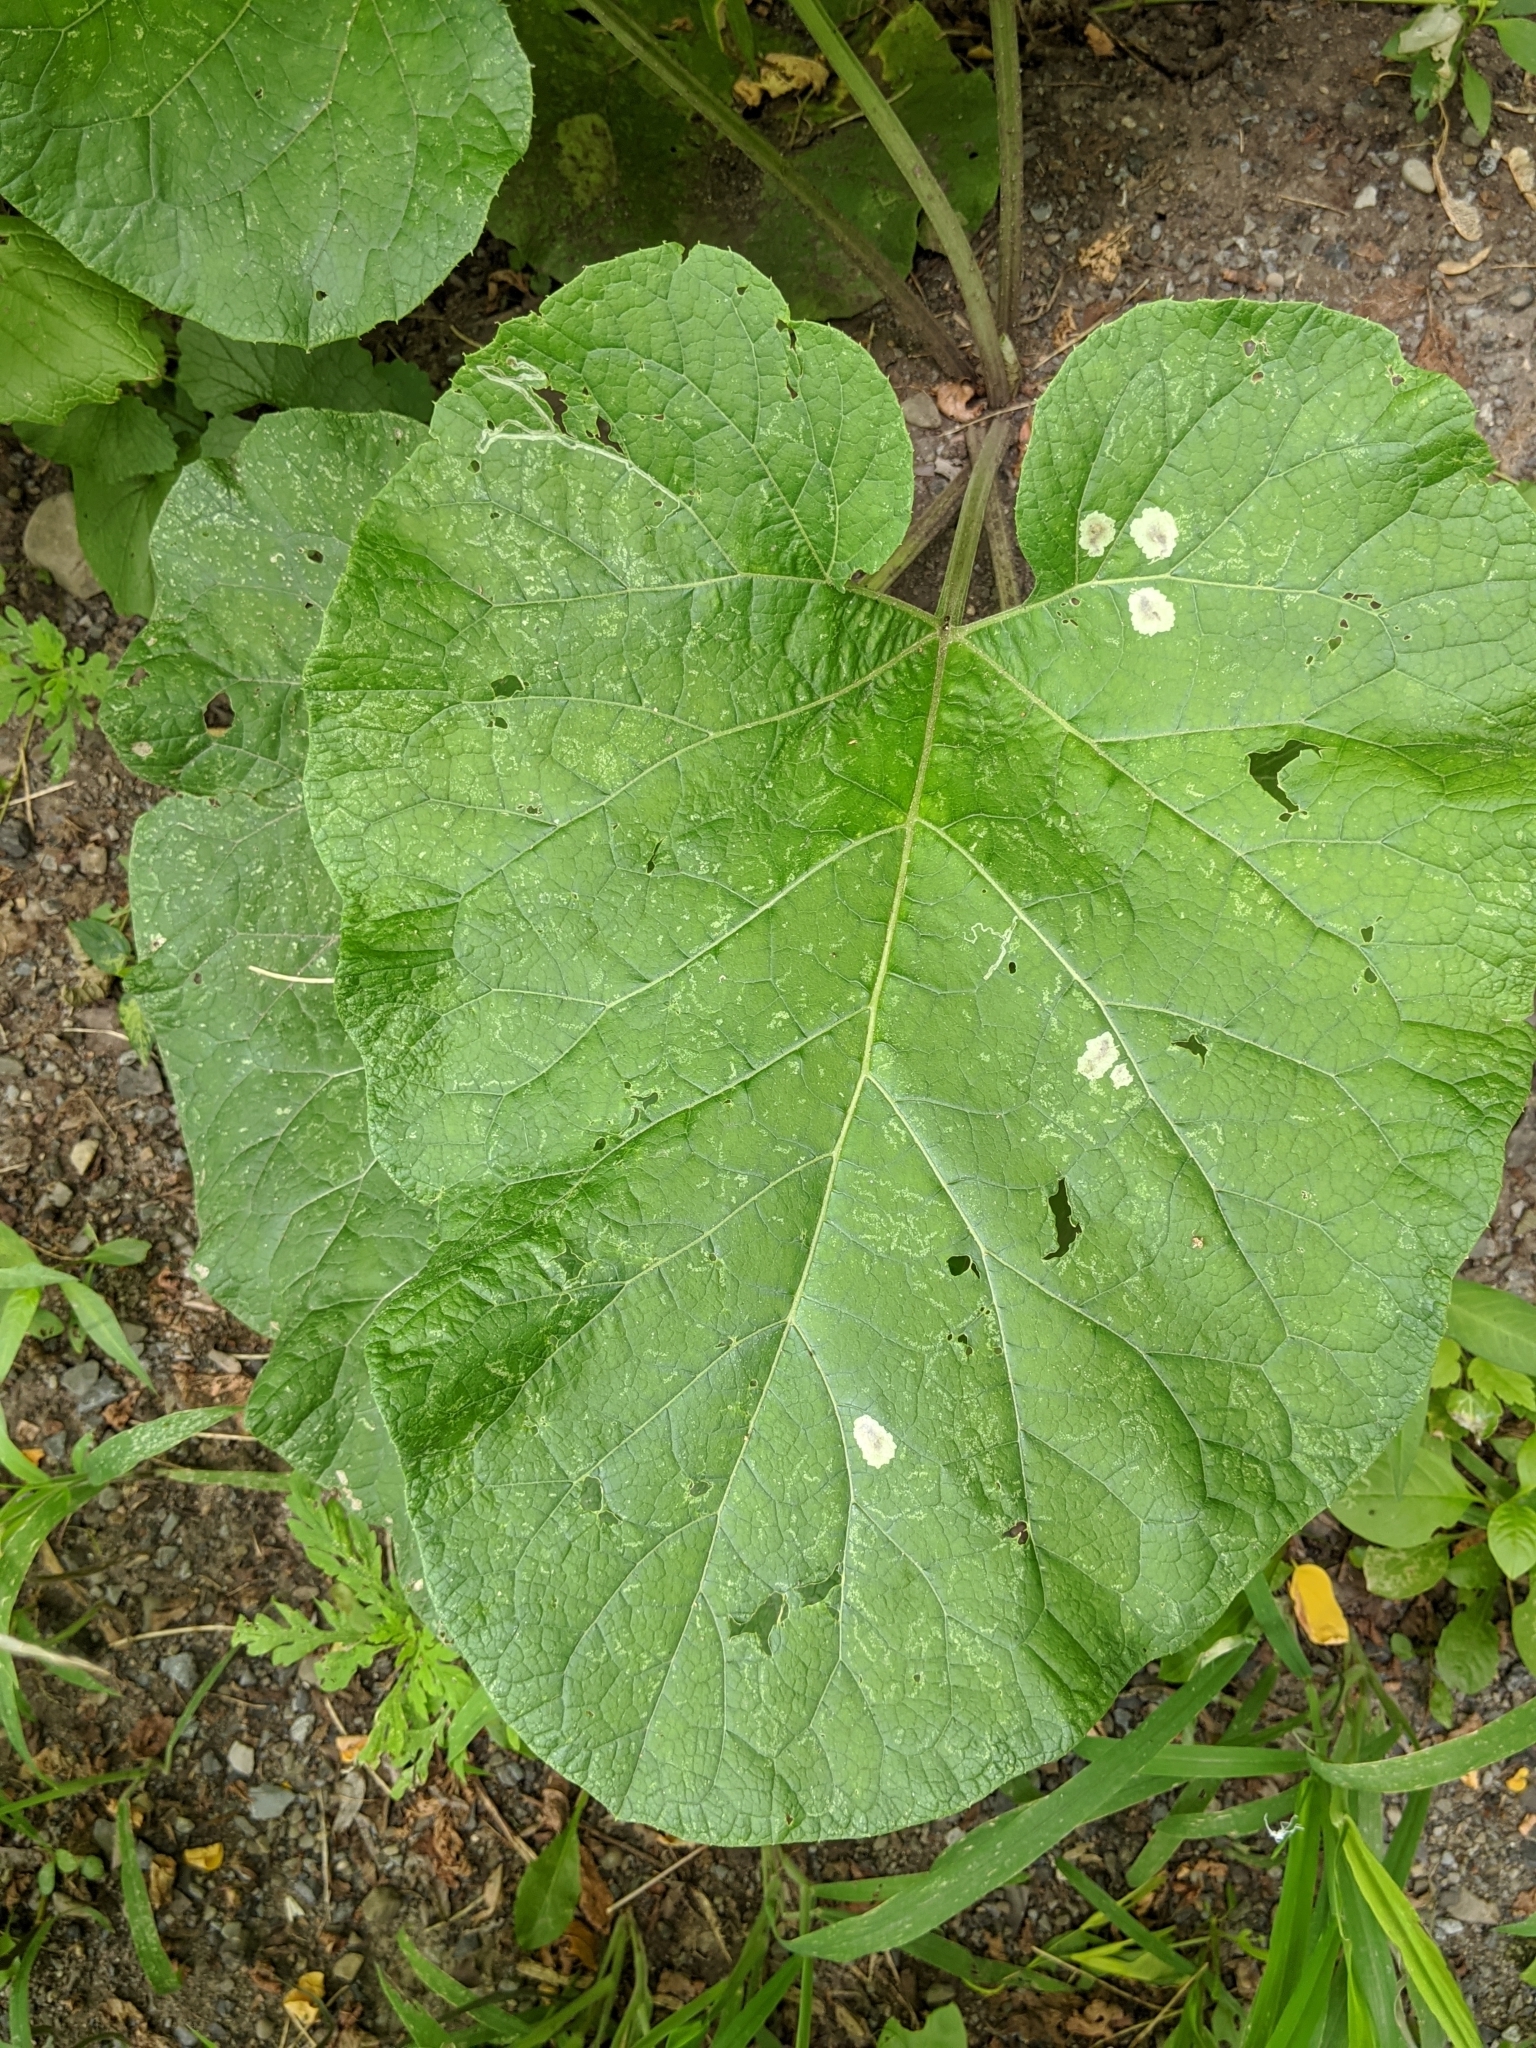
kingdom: Plantae
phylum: Tracheophyta
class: Magnoliopsida
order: Asterales
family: Asteraceae
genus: Arctium
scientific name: Arctium
